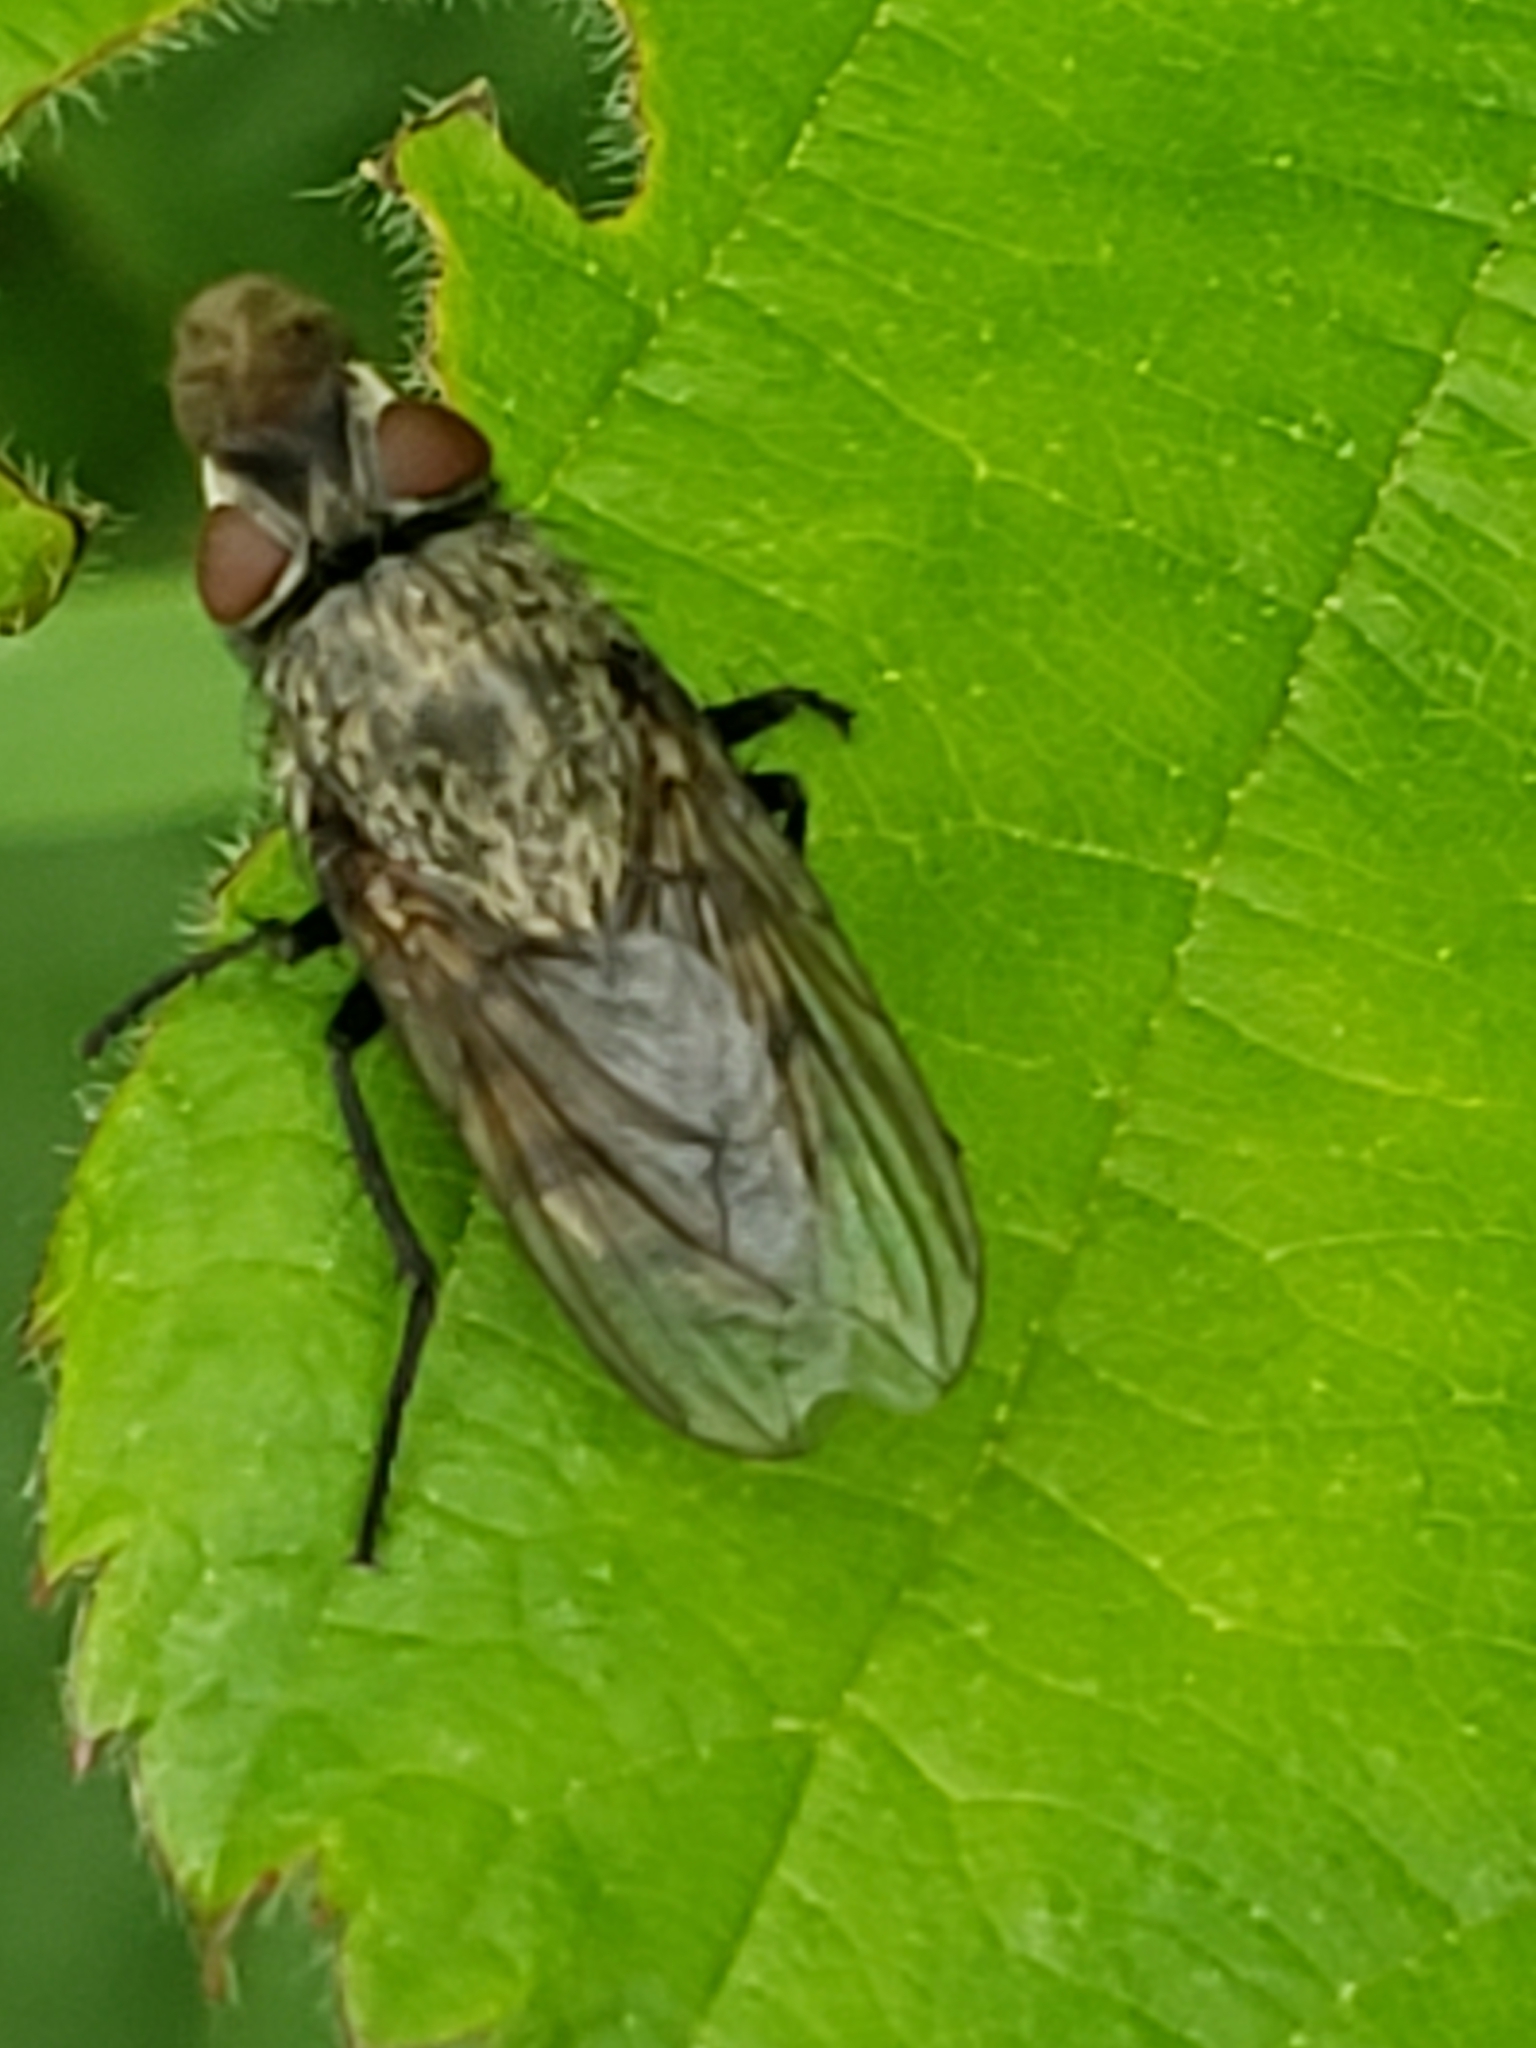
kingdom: Animalia
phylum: Arthropoda
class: Insecta
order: Diptera
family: Polleniidae
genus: Pollenia
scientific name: Pollenia
